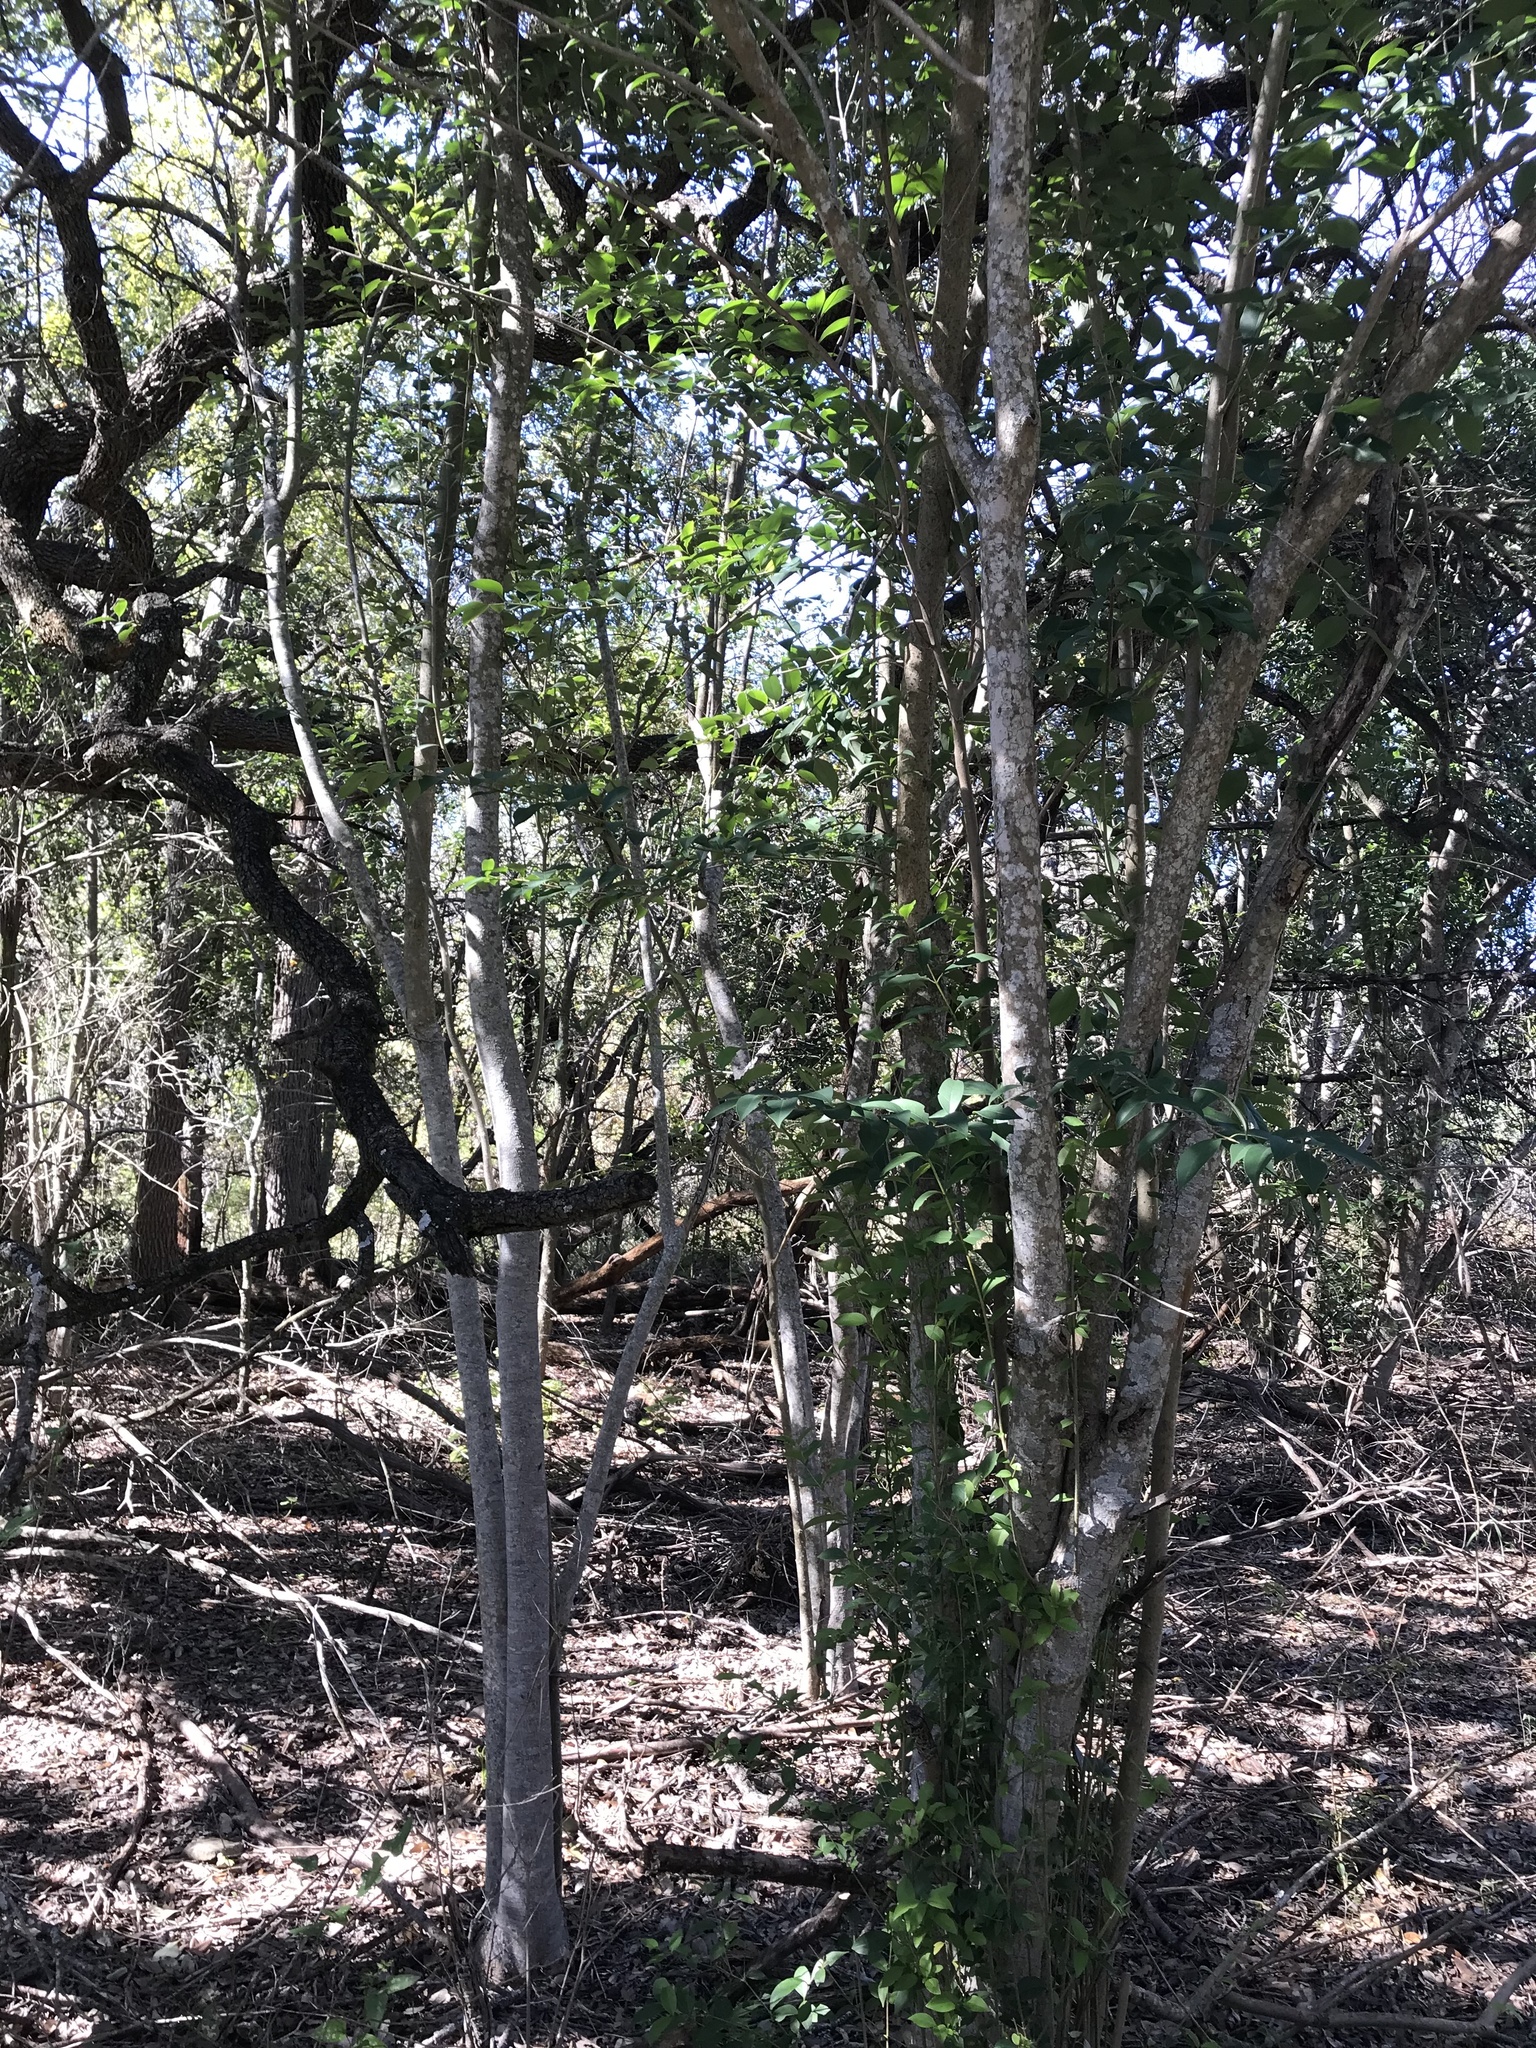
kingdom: Plantae
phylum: Tracheophyta
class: Magnoliopsida
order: Lamiales
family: Oleaceae
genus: Ligustrum
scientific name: Ligustrum lucidum
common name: Glossy privet
